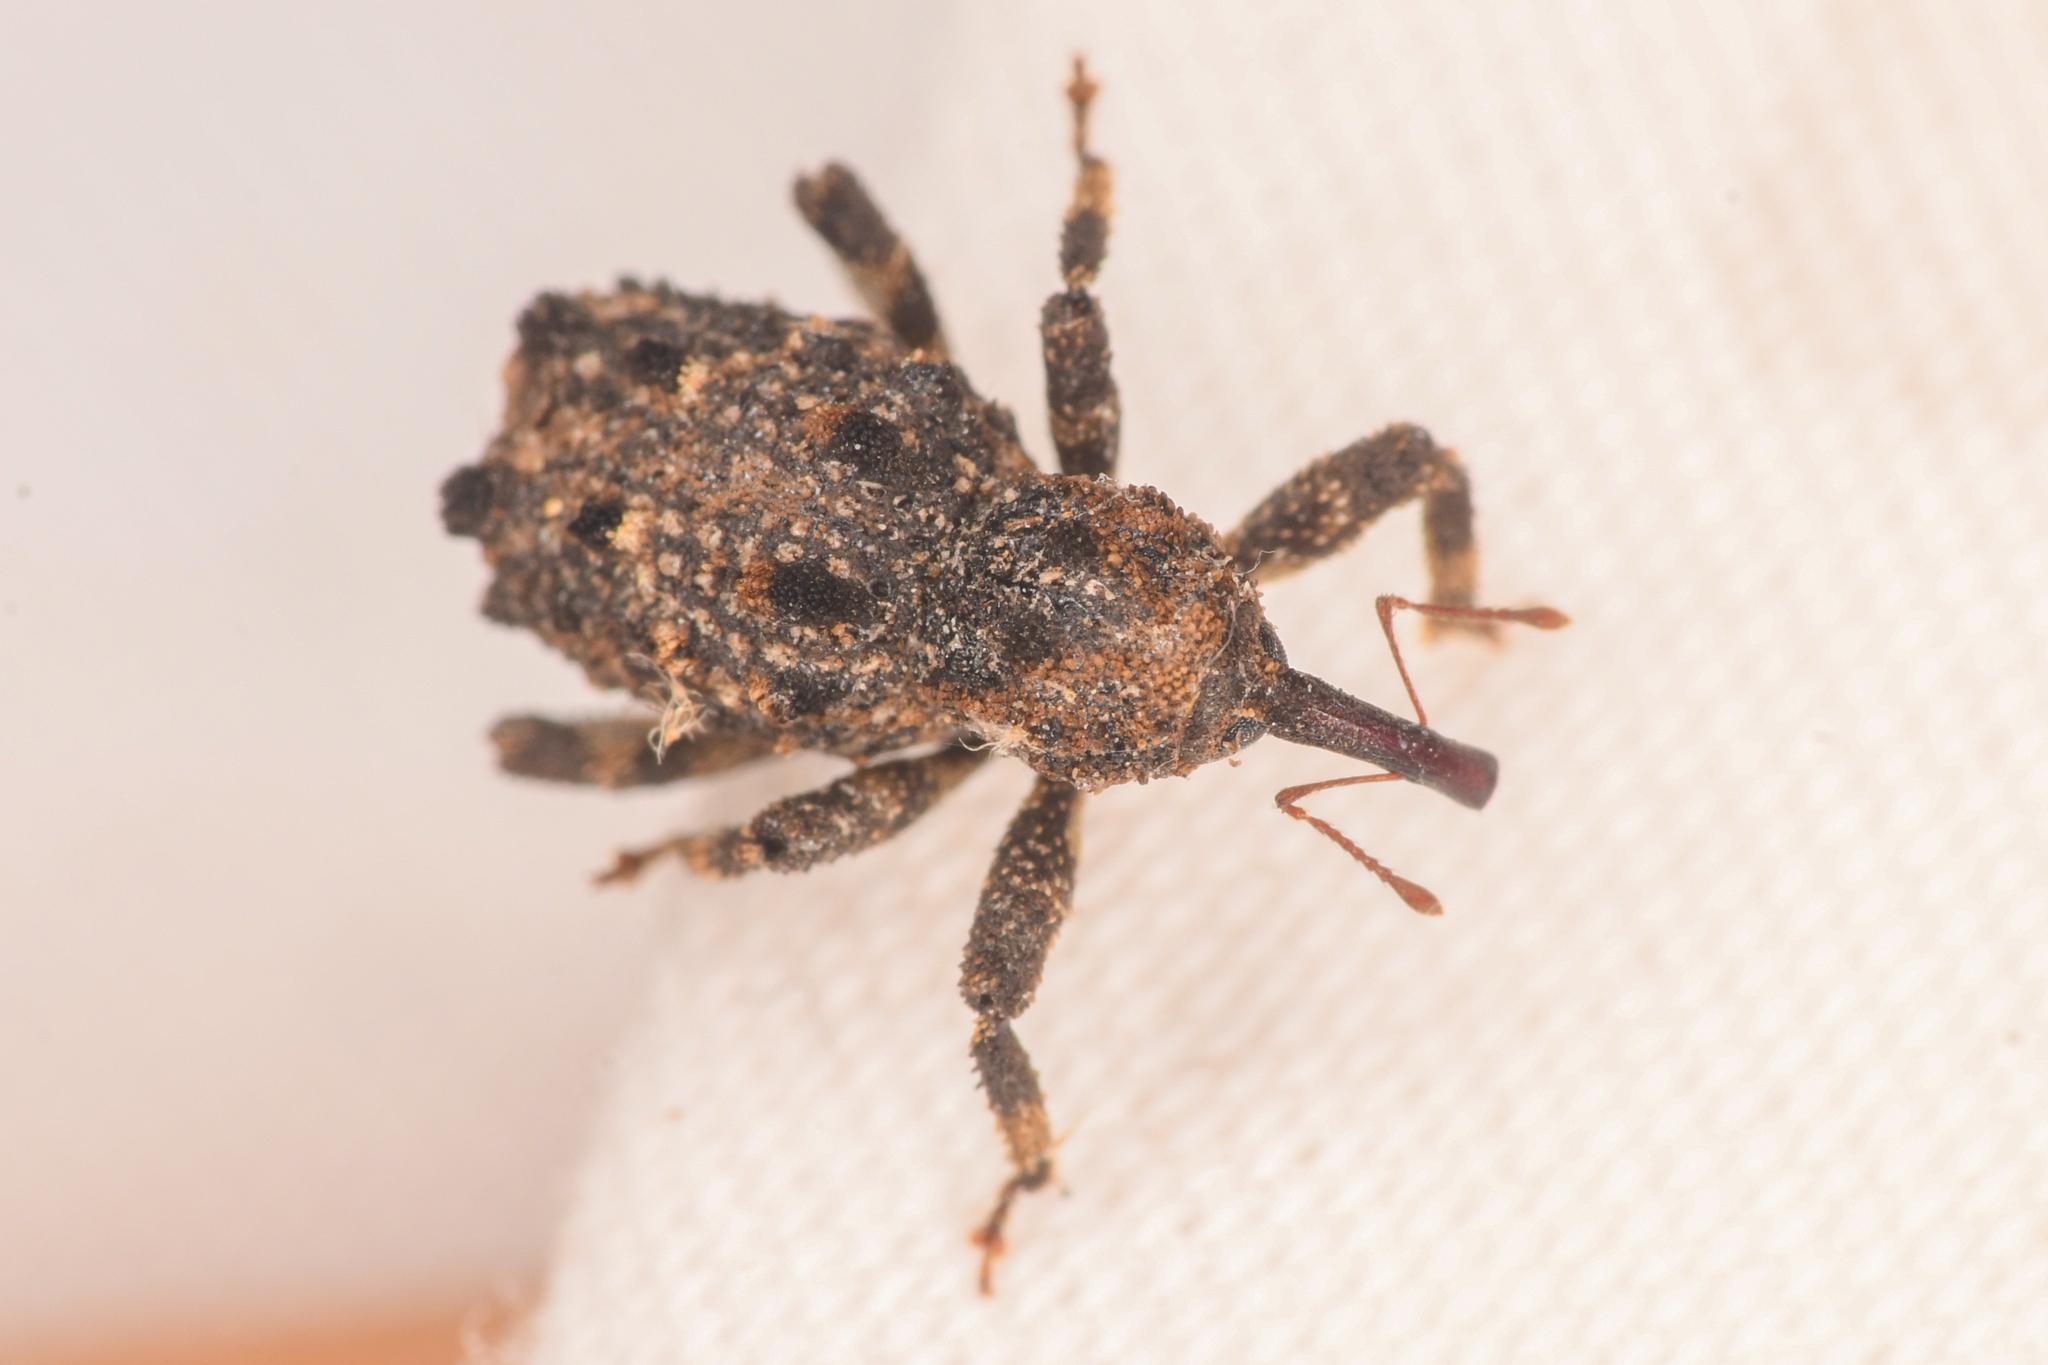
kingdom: Animalia
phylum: Arthropoda
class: Insecta
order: Coleoptera
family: Curculionidae
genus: Aparopion
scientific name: Aparopion horridus
